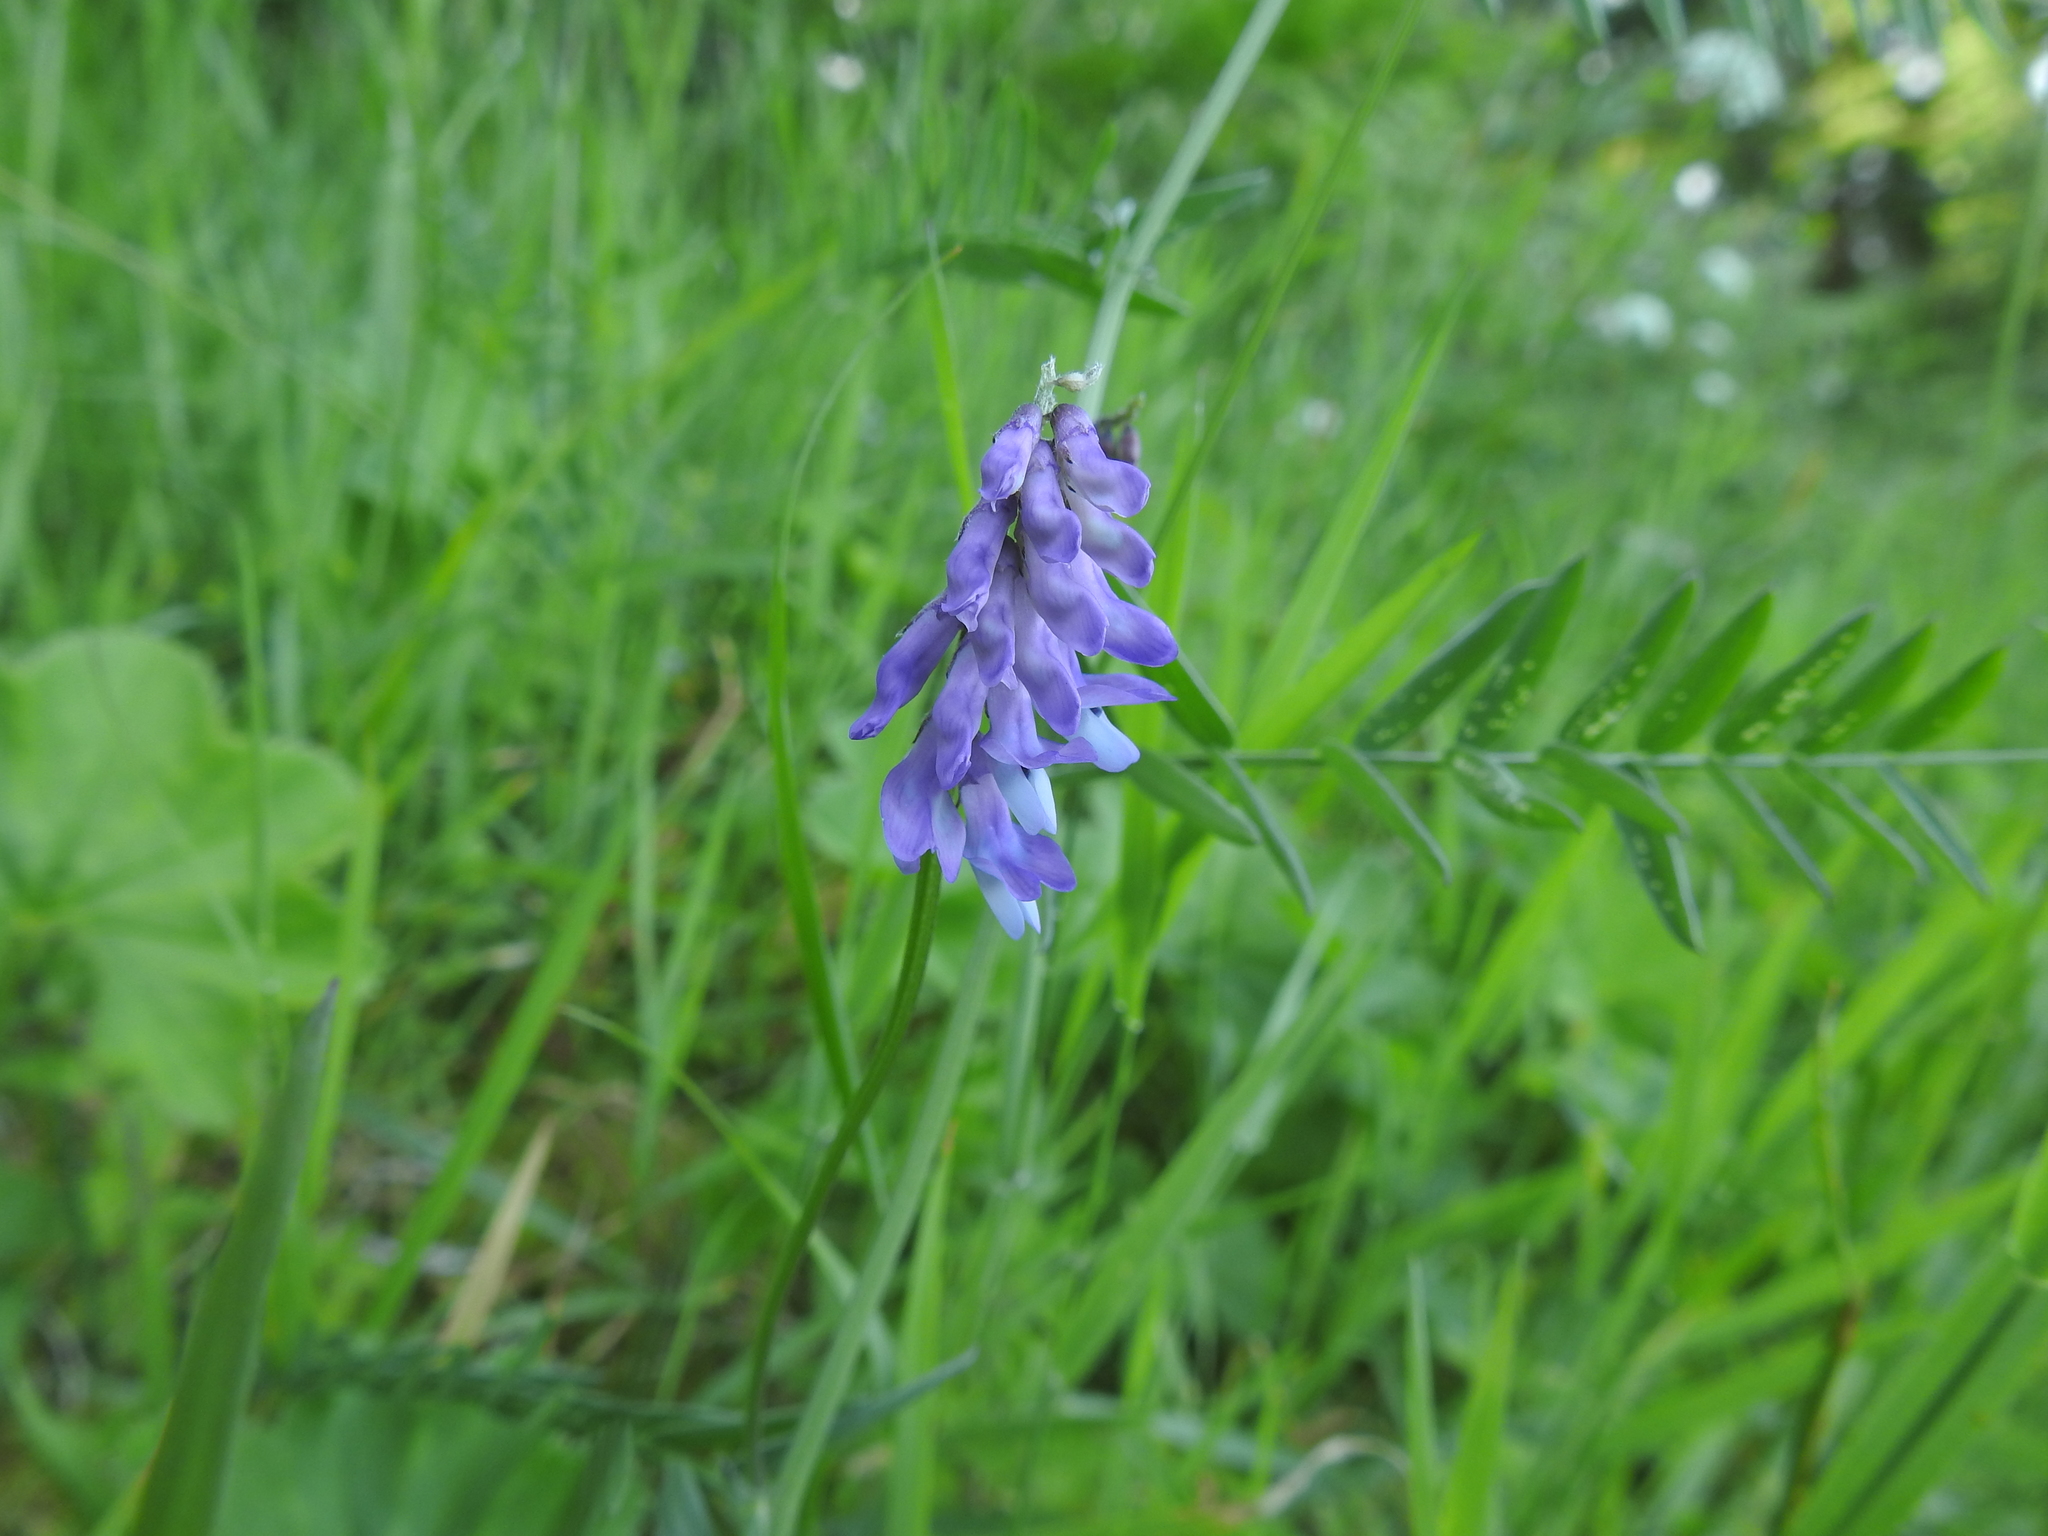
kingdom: Plantae
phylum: Tracheophyta
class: Magnoliopsida
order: Fabales
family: Fabaceae
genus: Vicia
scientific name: Vicia cracca
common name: Bird vetch
